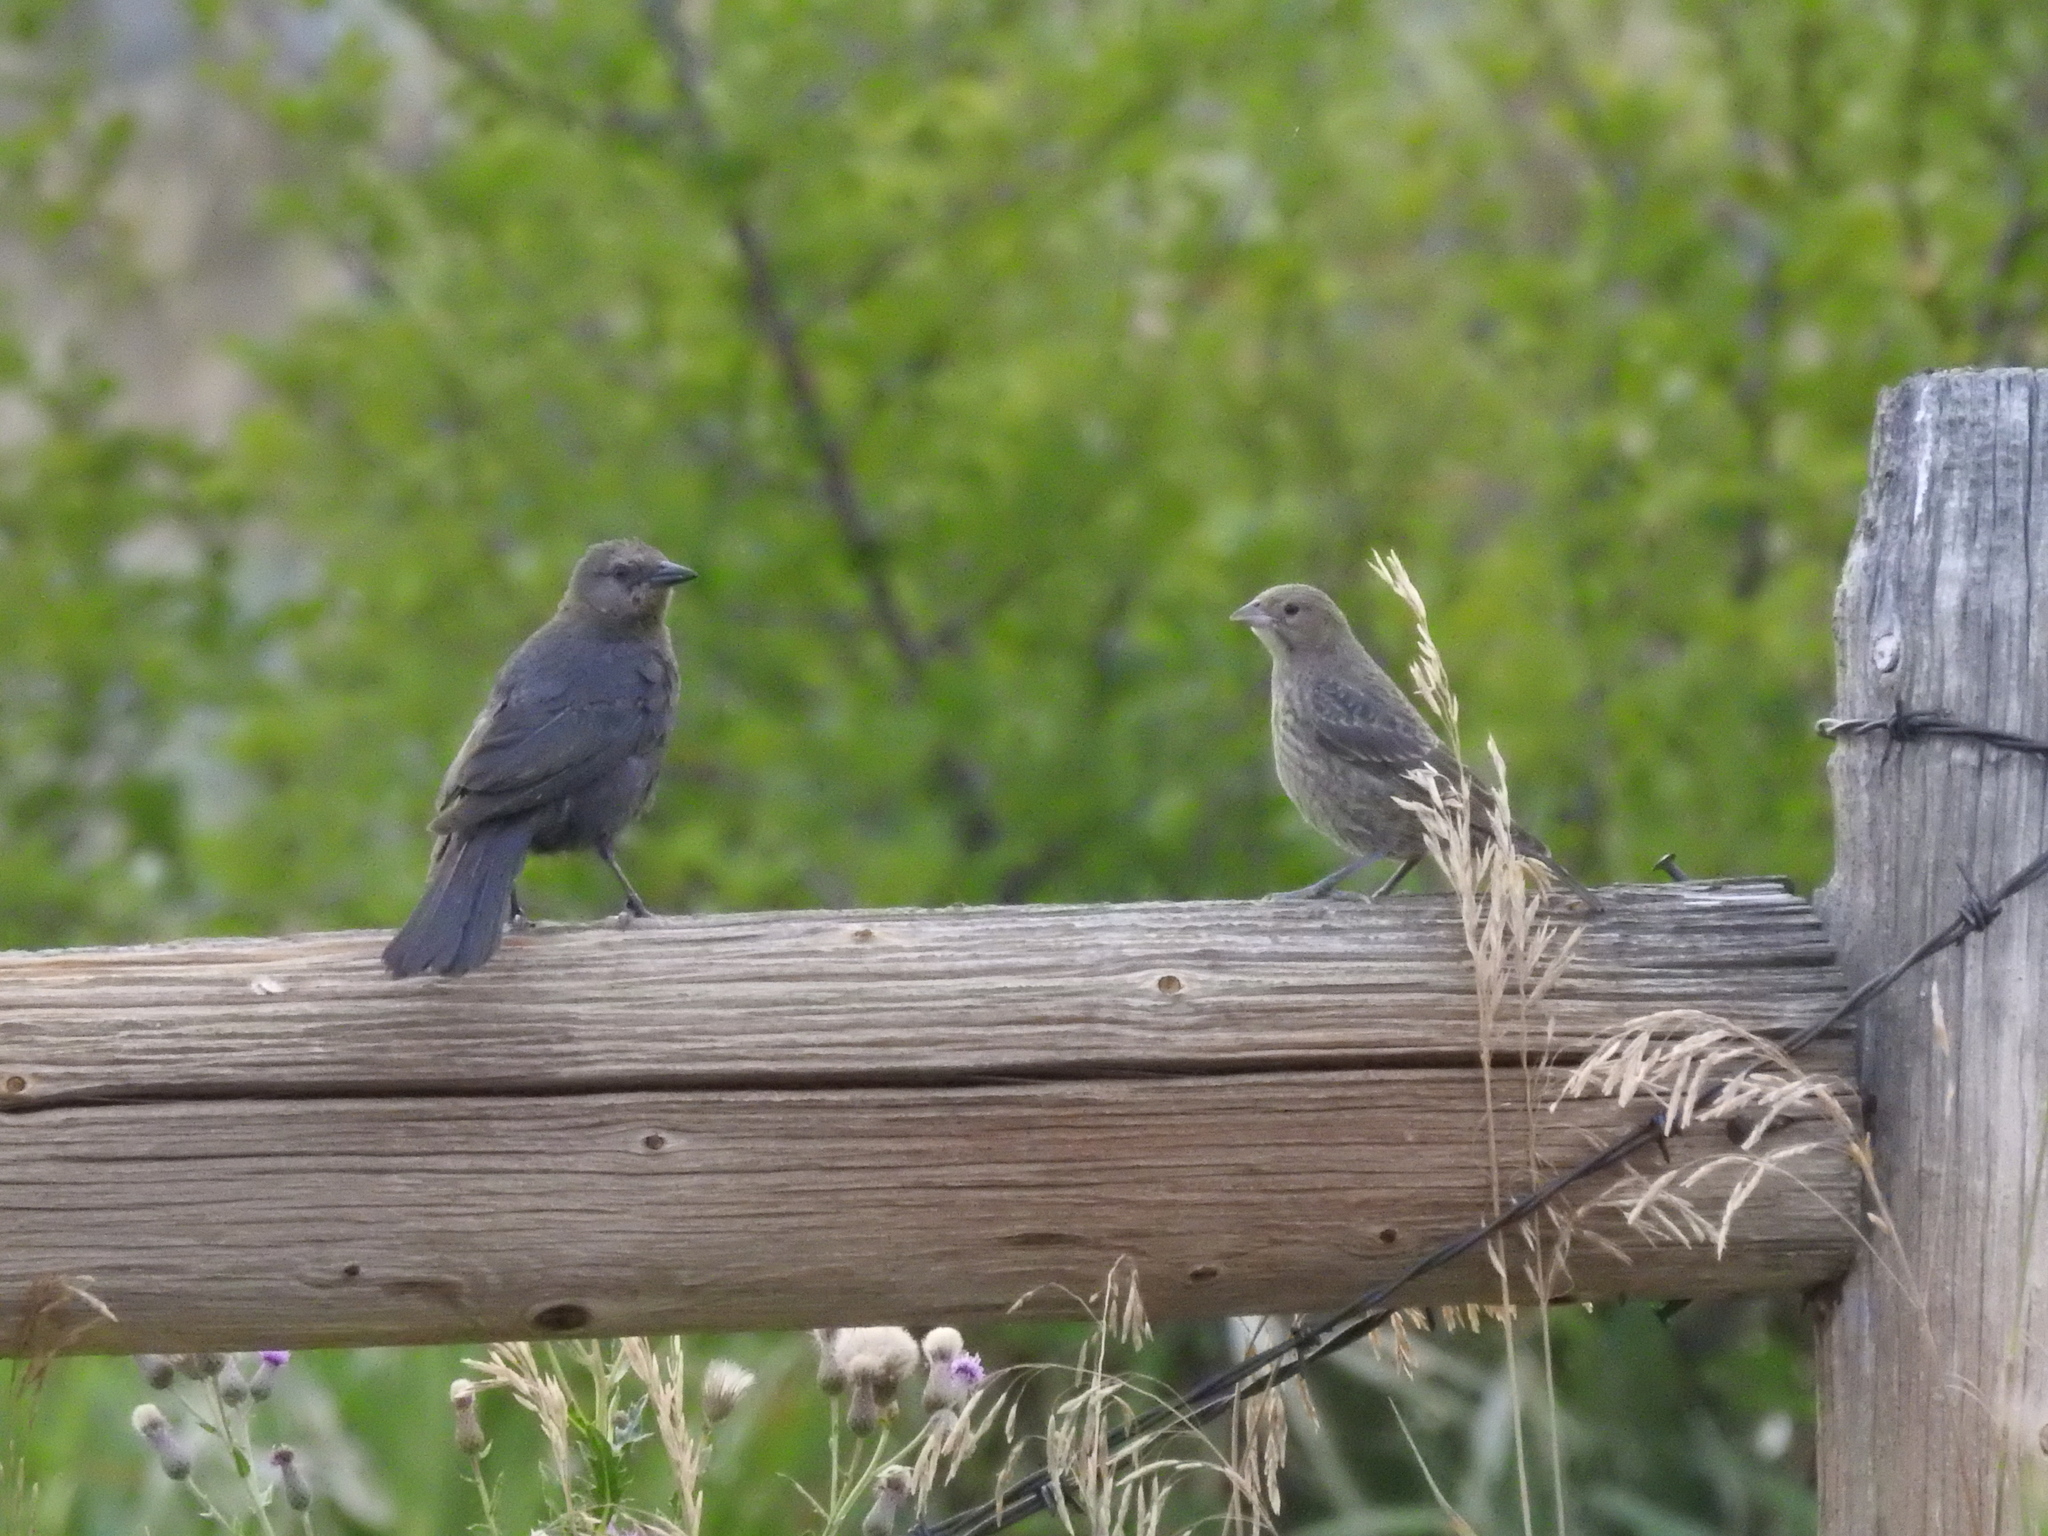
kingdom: Animalia
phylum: Chordata
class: Aves
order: Passeriformes
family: Icteridae
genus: Molothrus
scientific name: Molothrus ater
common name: Brown-headed cowbird
